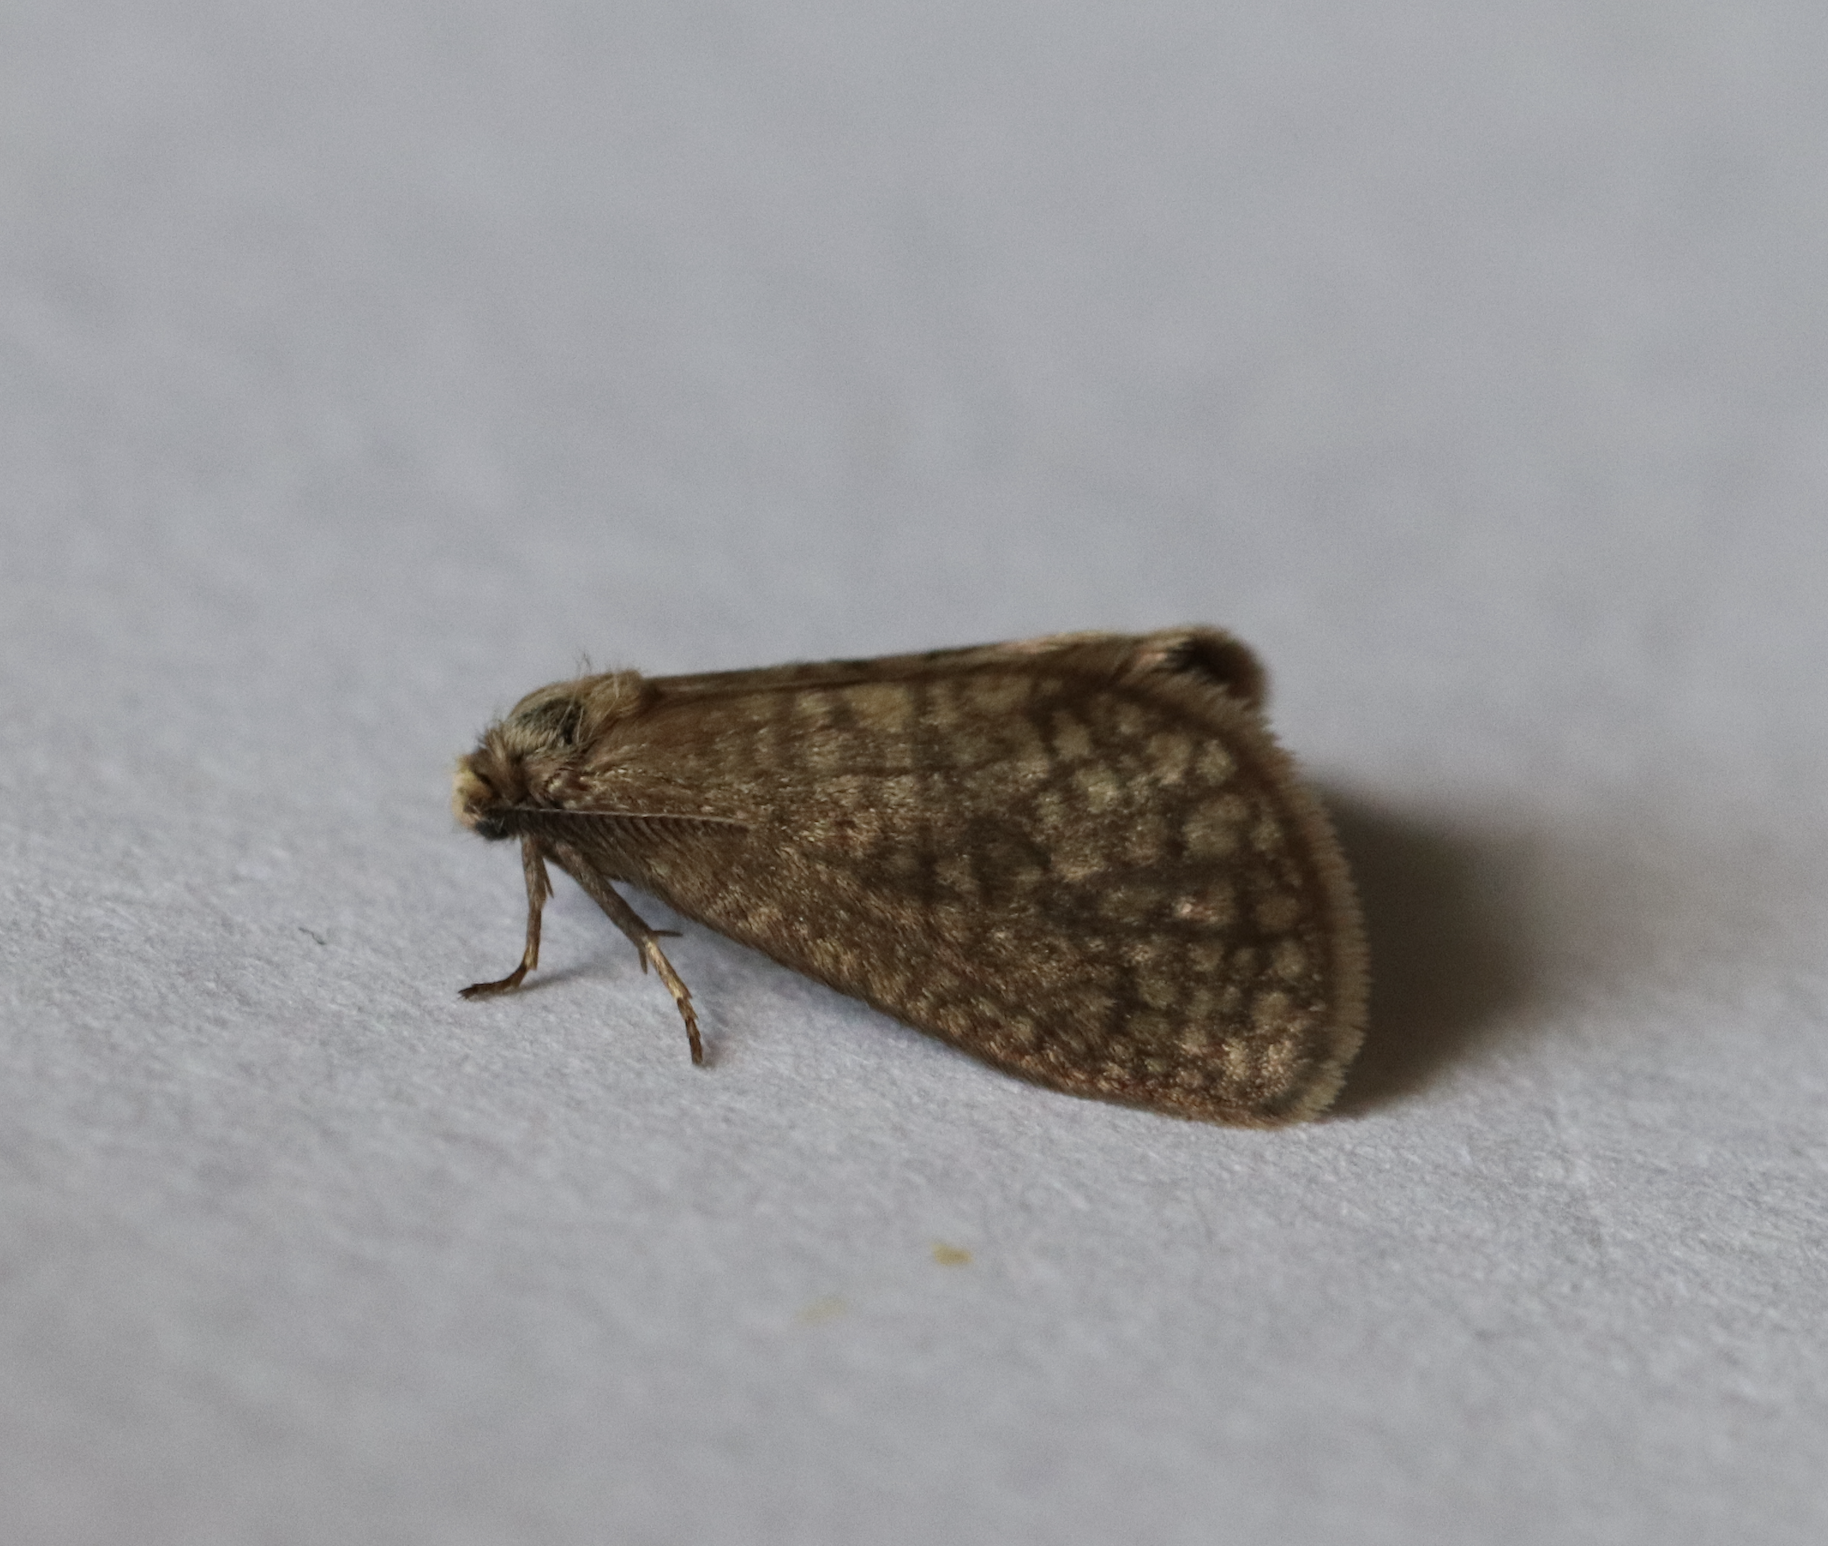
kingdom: Animalia
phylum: Arthropoda
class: Insecta
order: Lepidoptera
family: Psychidae
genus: Bijugis
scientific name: Bijugis bombycella
